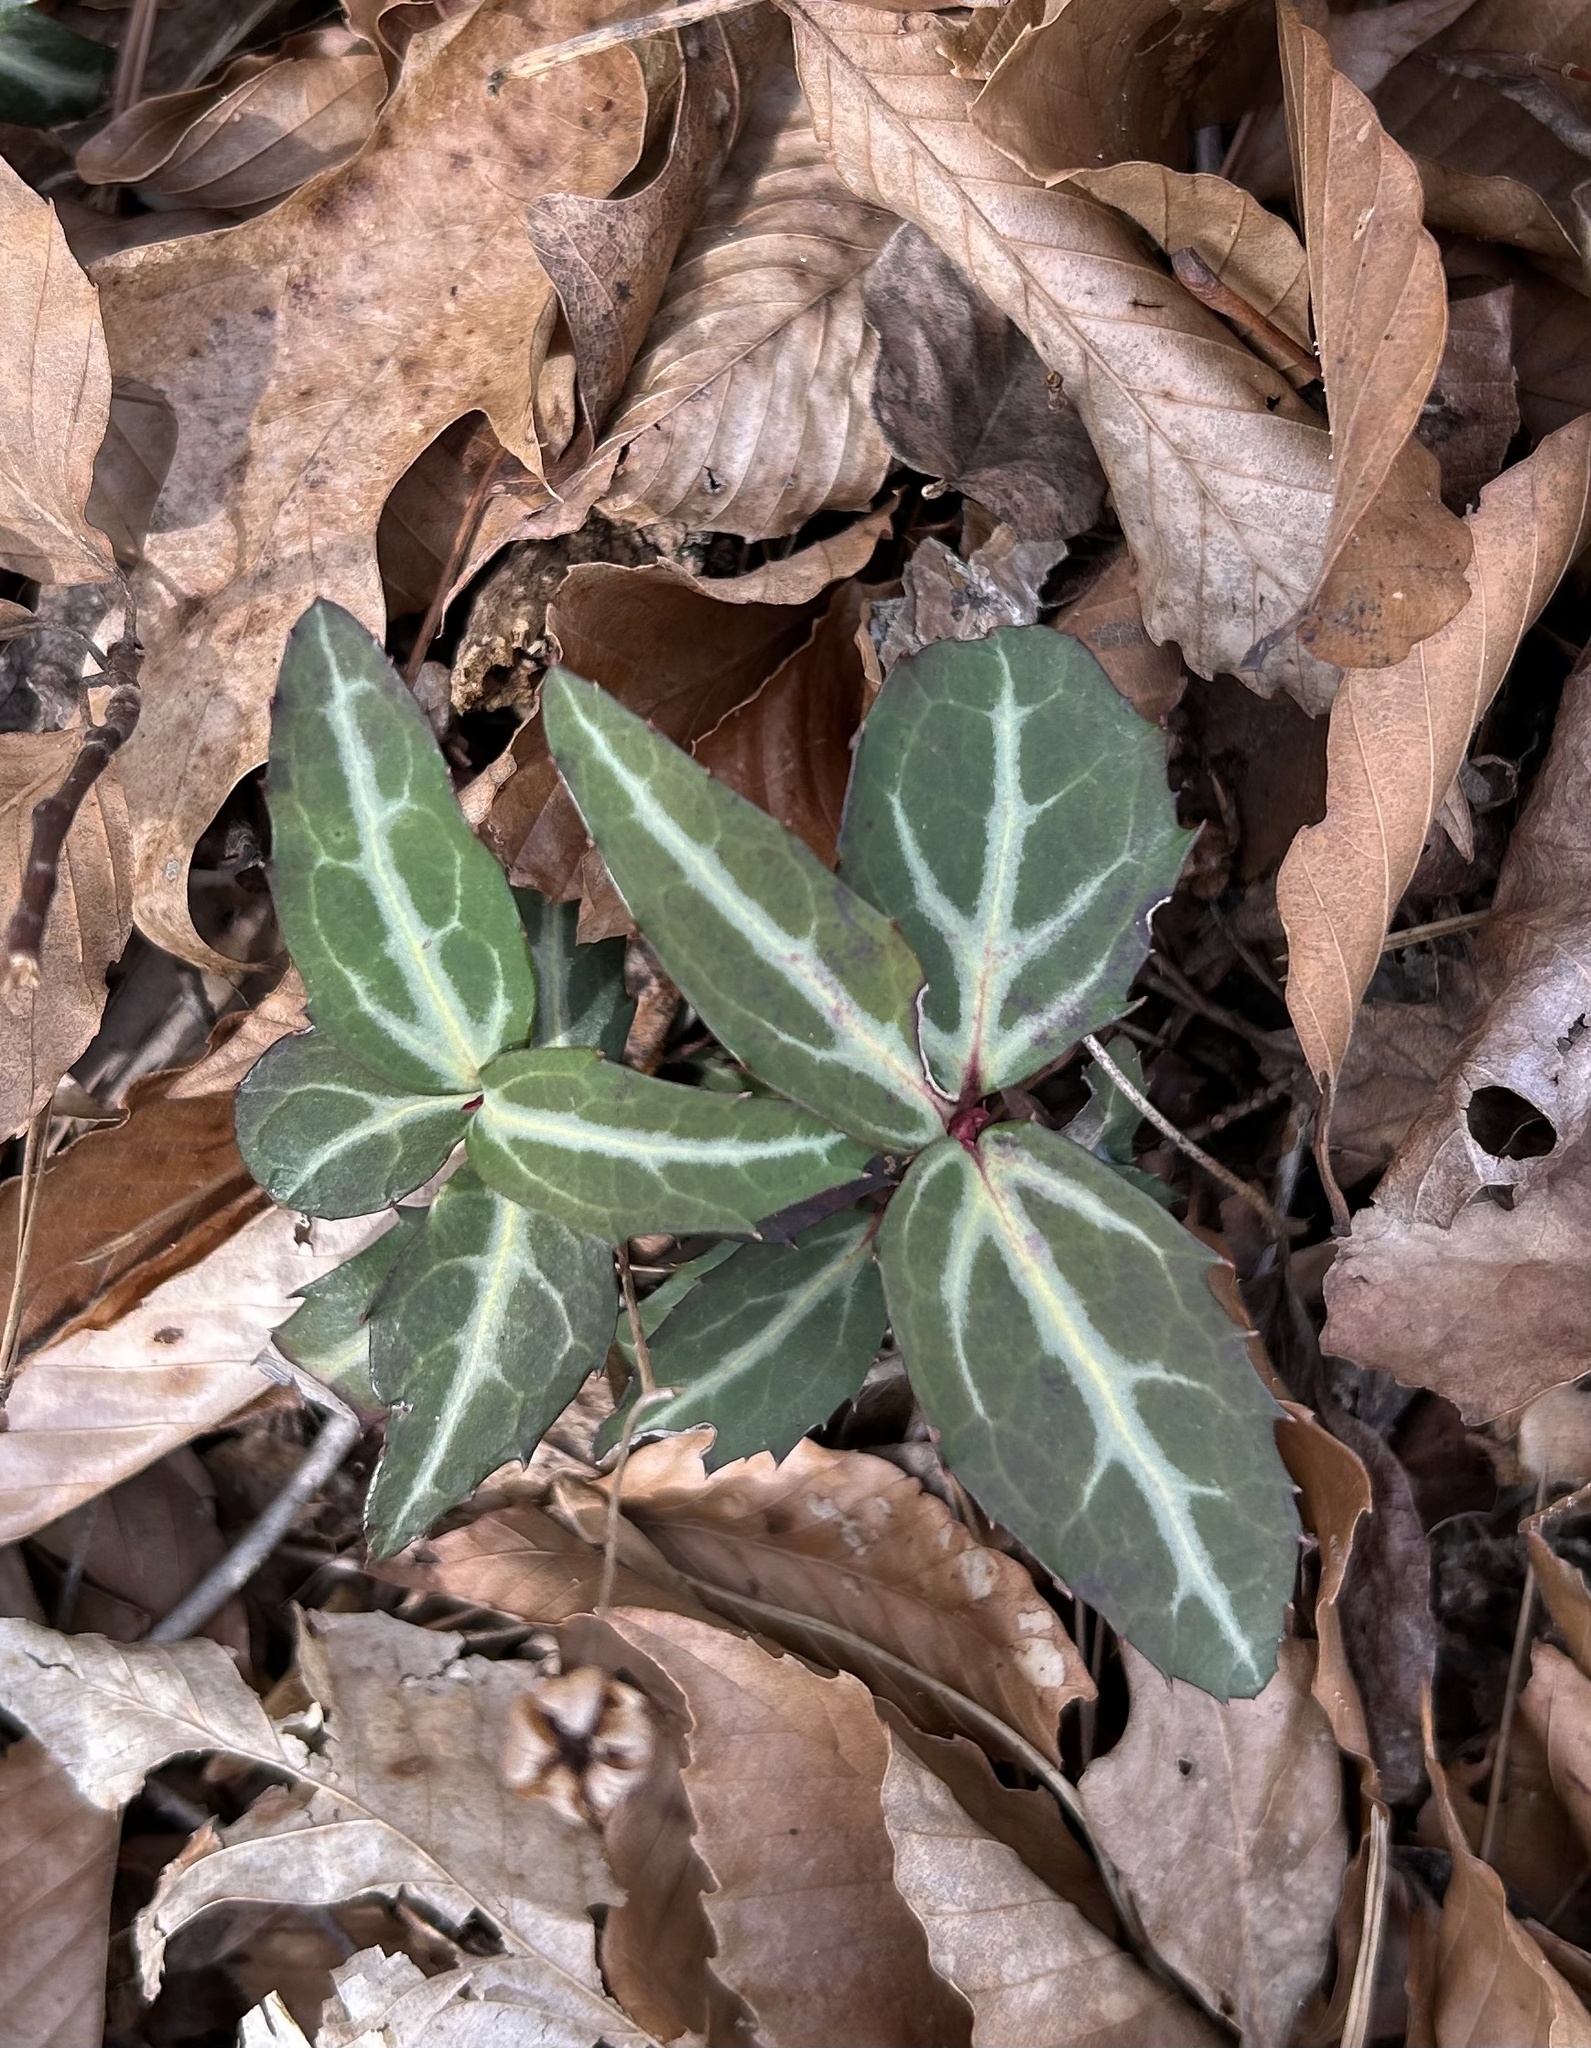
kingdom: Plantae
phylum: Tracheophyta
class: Magnoliopsida
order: Ericales
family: Ericaceae
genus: Chimaphila
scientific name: Chimaphila maculata
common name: Spotted pipsissewa
